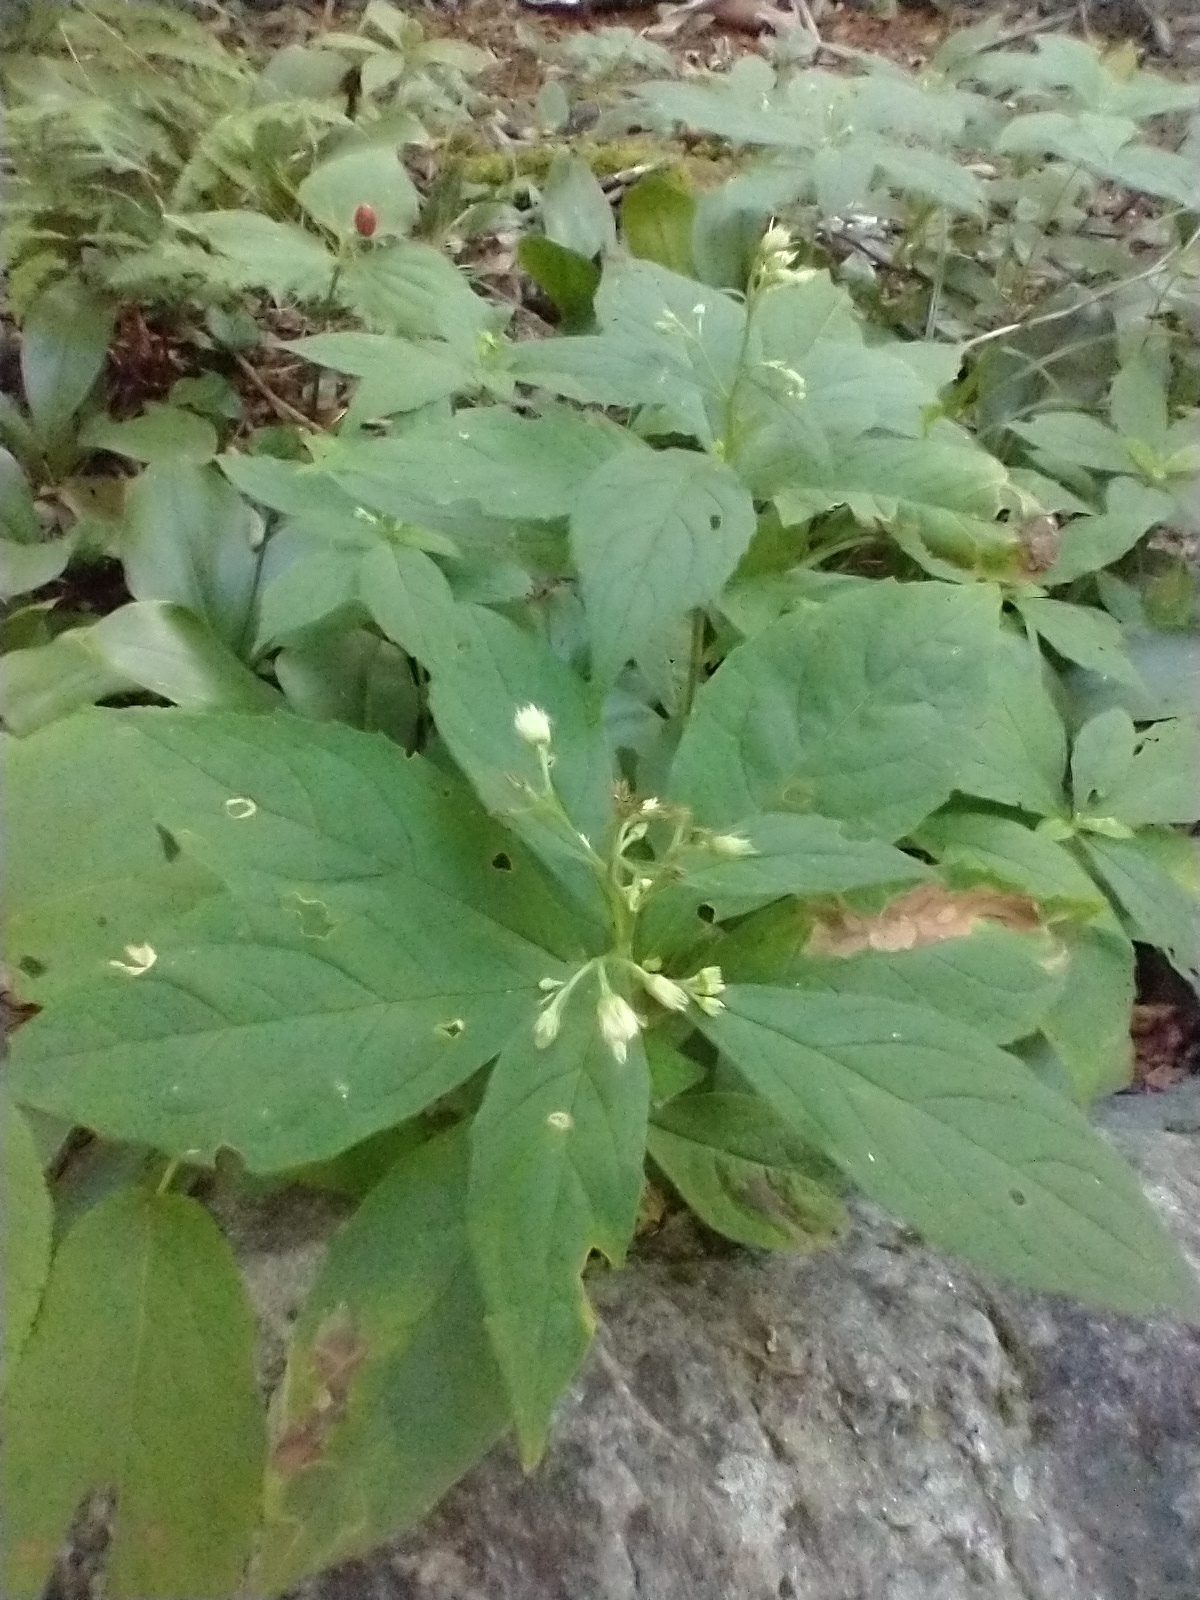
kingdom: Plantae
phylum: Tracheophyta
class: Magnoliopsida
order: Asterales
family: Asteraceae
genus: Oclemena
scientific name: Oclemena acuminata
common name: Mountain aster
